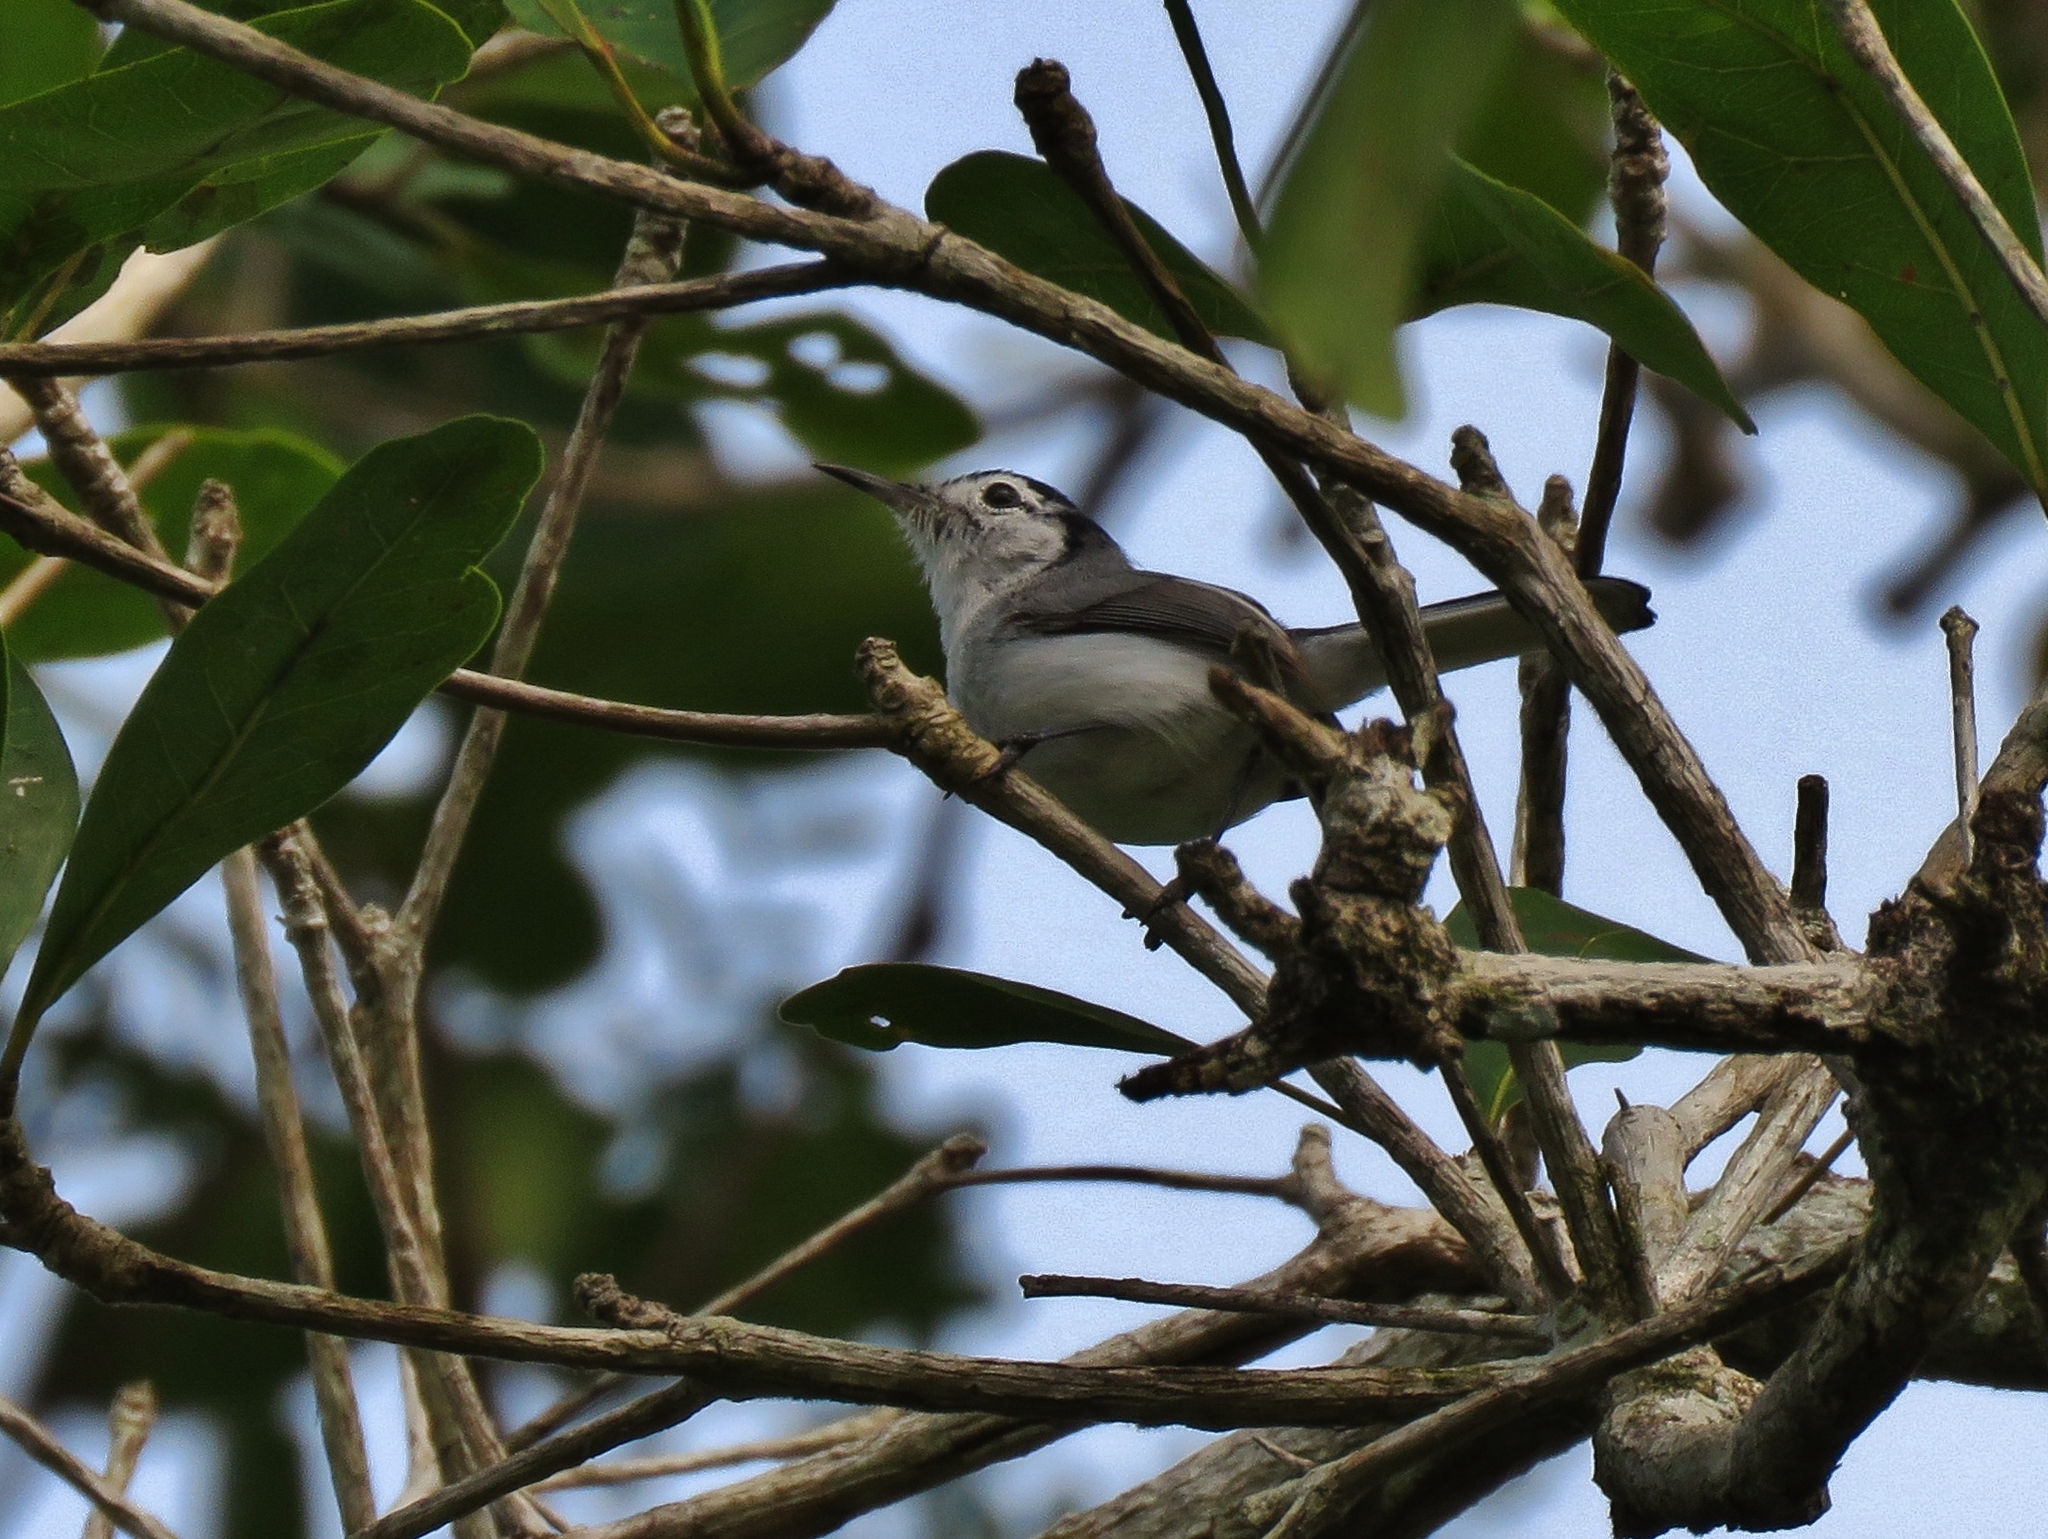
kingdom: Animalia
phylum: Chordata
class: Aves
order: Passeriformes
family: Polioptilidae
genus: Polioptila
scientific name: Polioptila plumbea
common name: Tropical gnatcatcher
